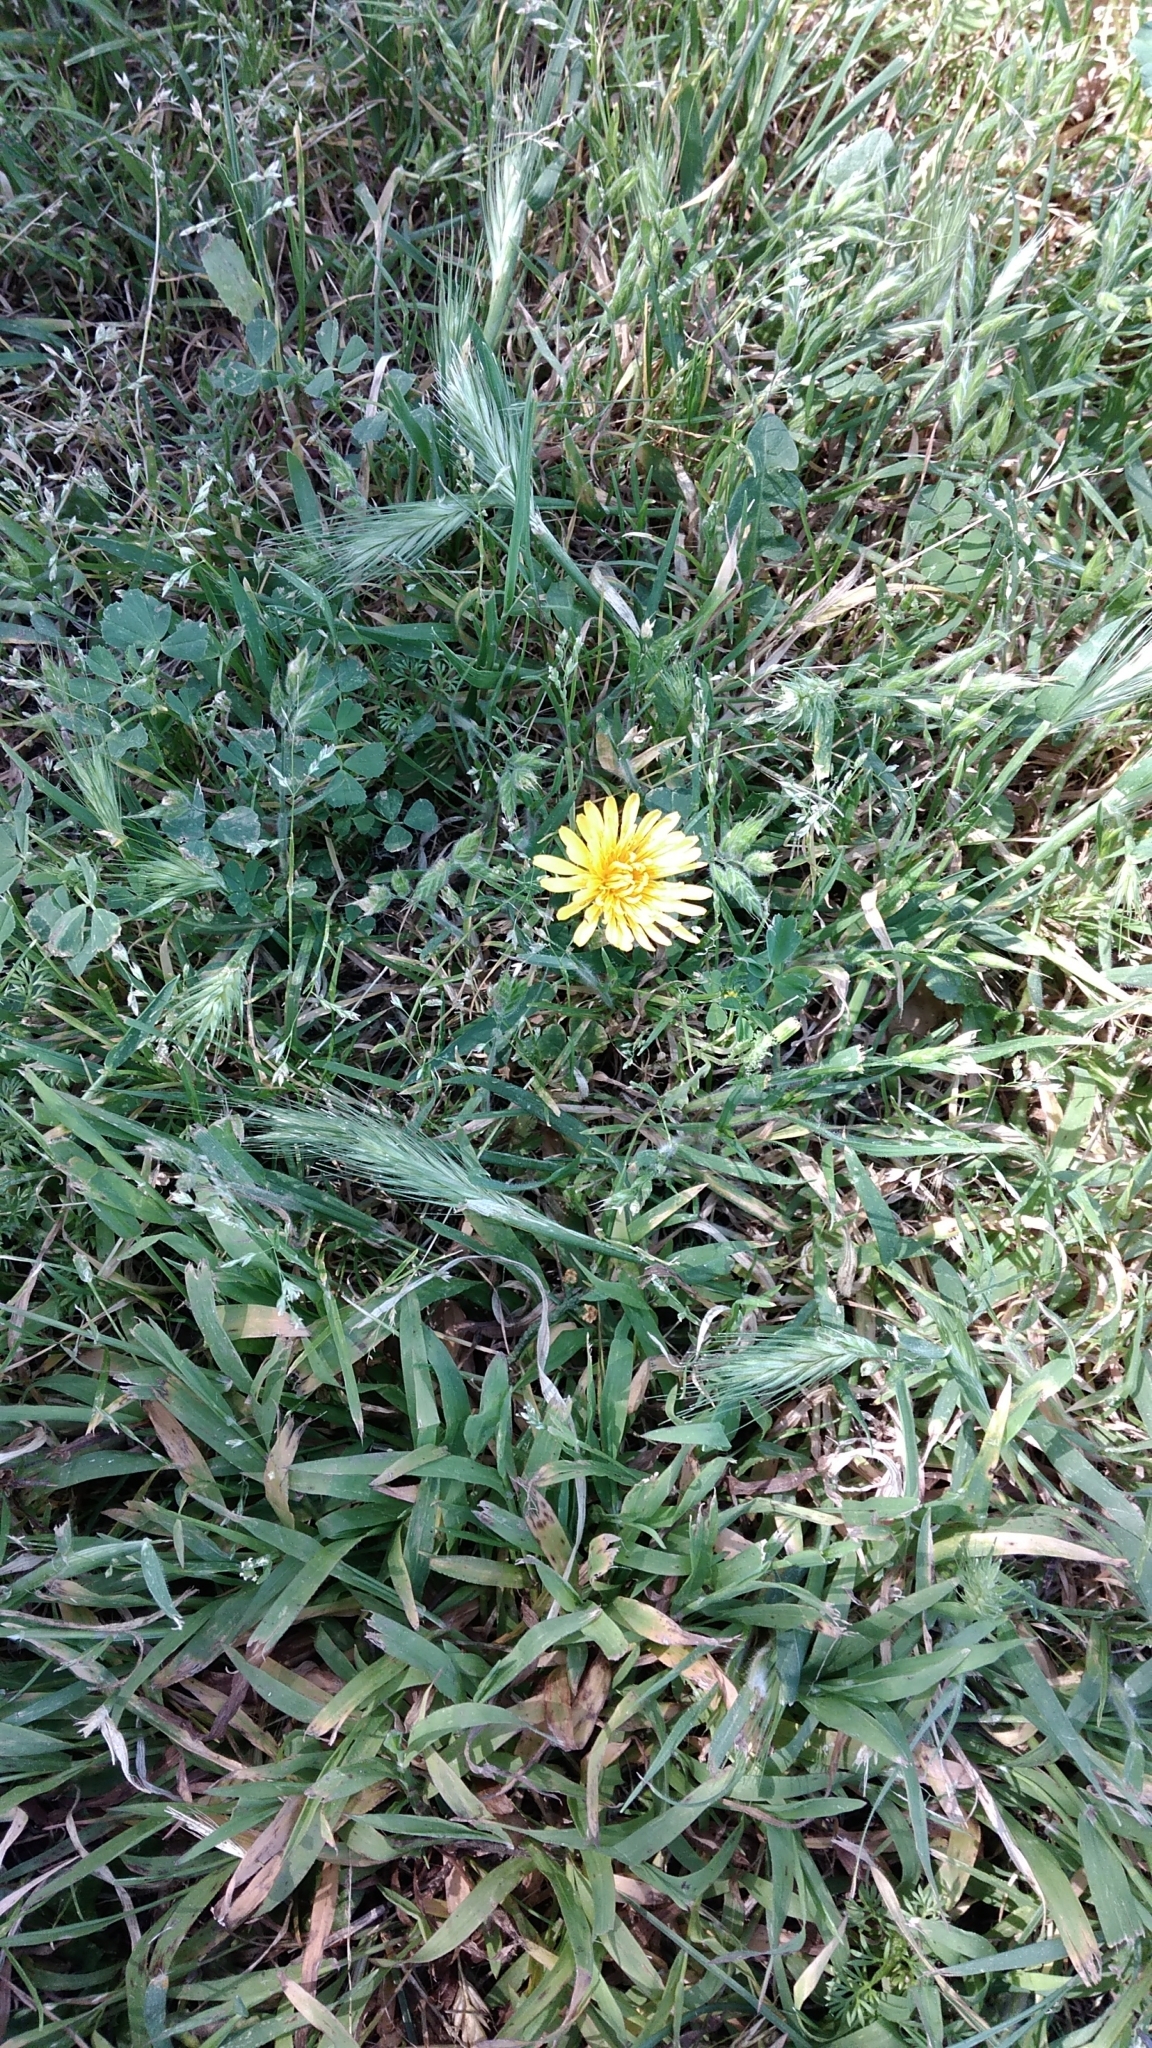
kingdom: Plantae
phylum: Tracheophyta
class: Magnoliopsida
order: Asterales
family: Asteraceae
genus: Taraxacum
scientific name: Taraxacum officinale
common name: Common dandelion
